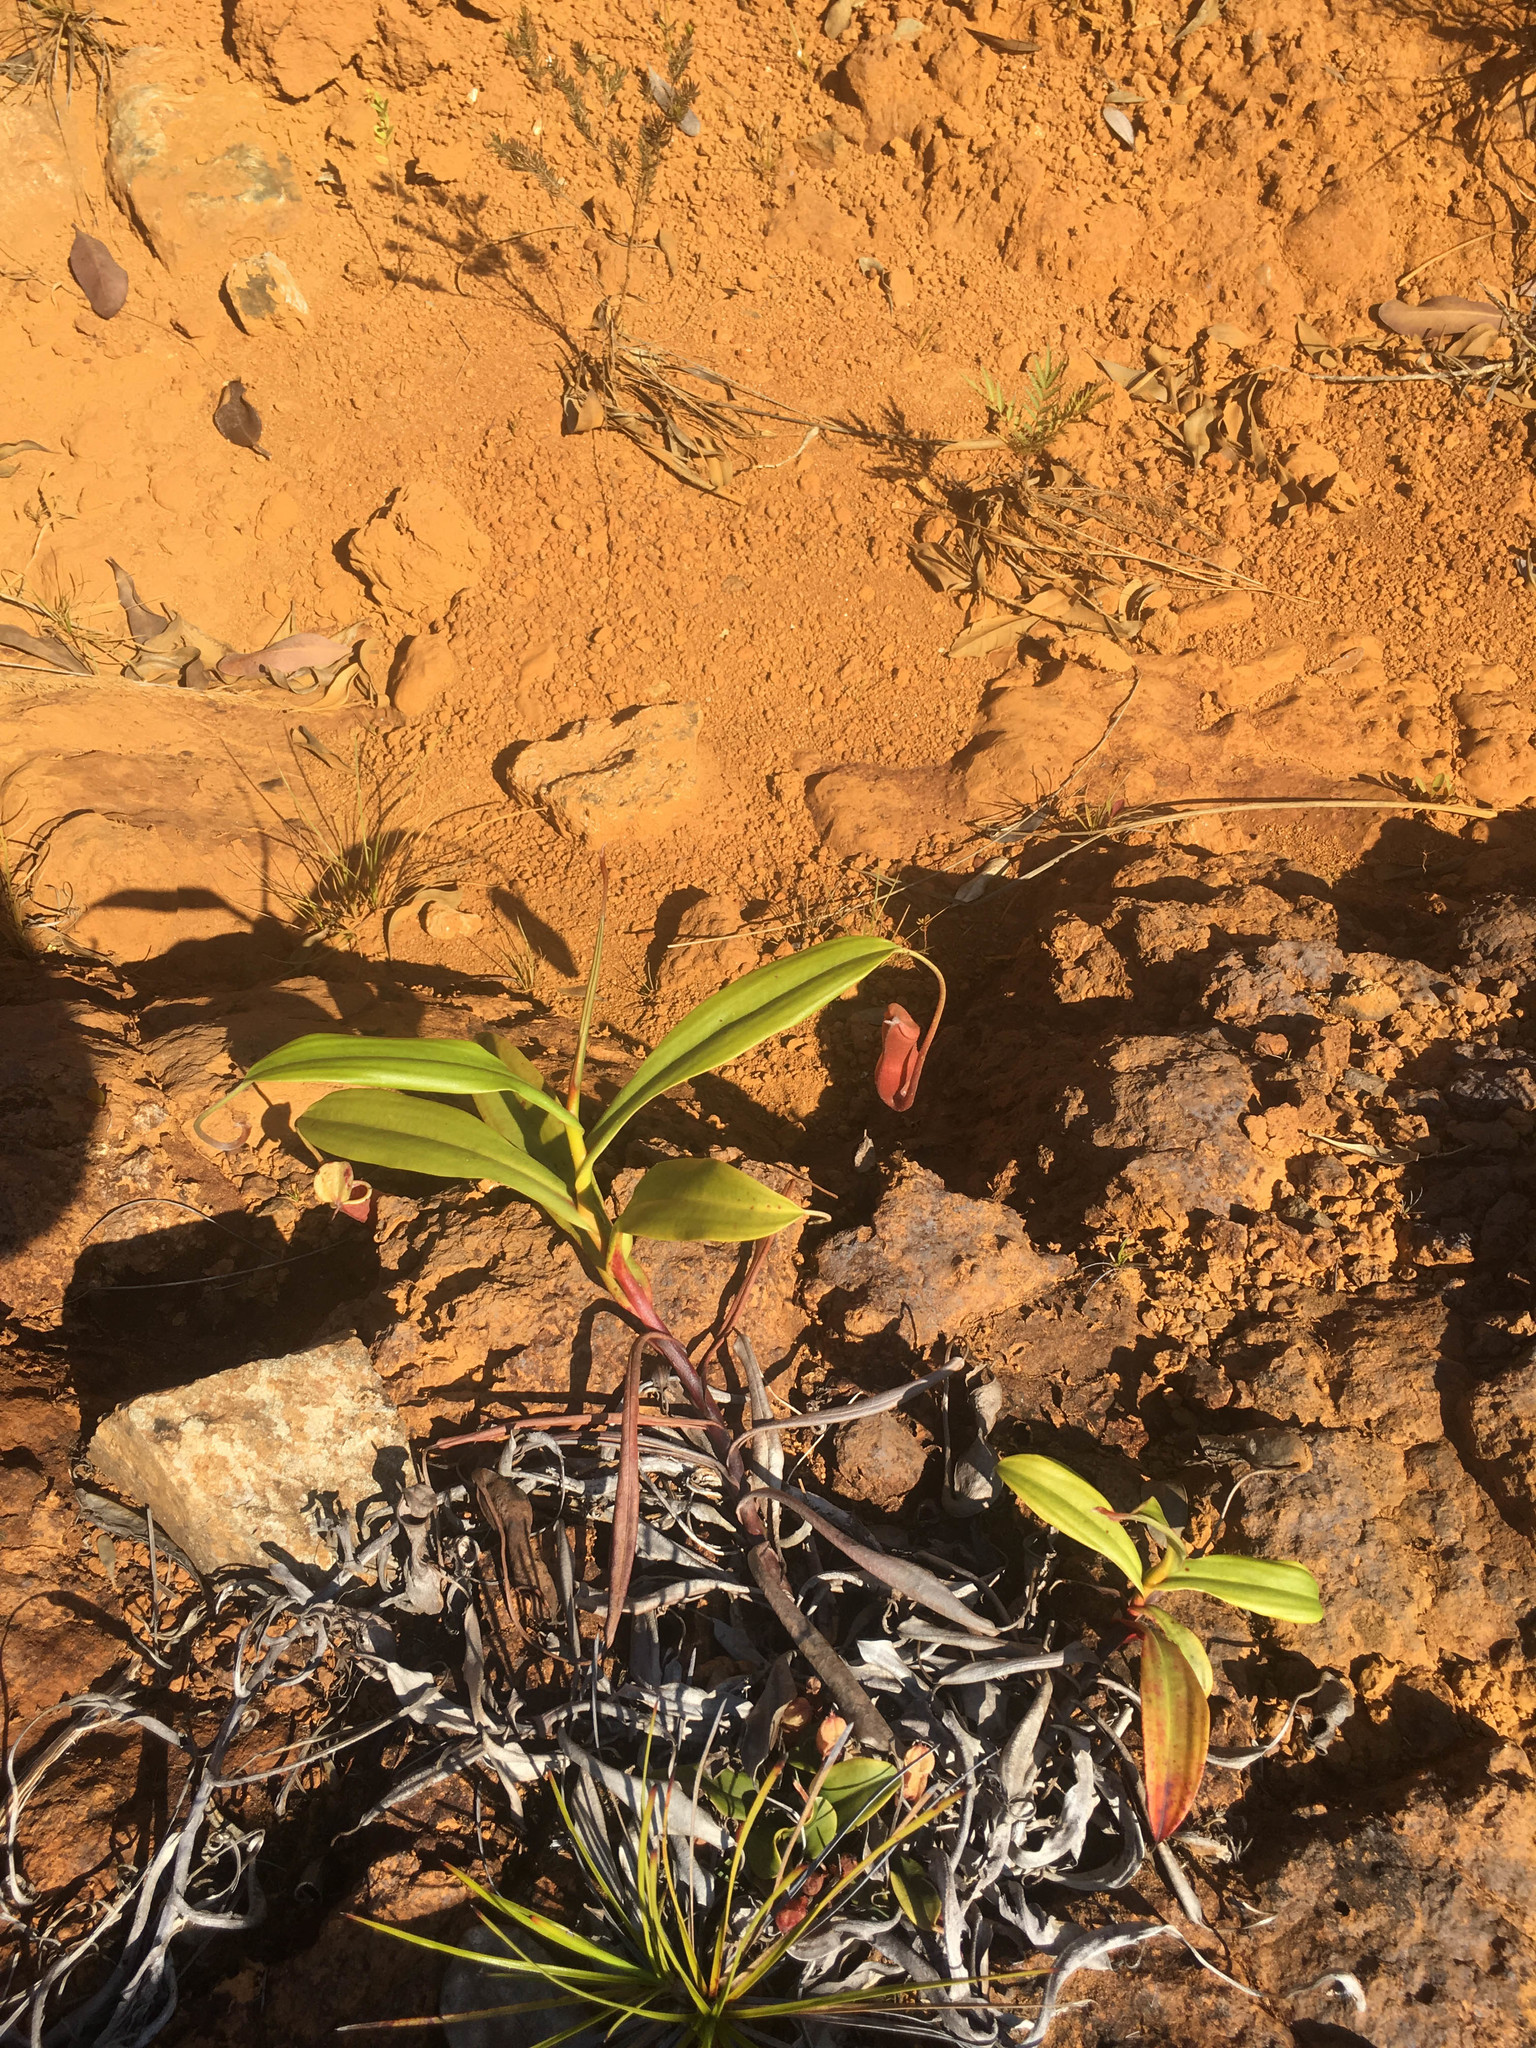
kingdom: Plantae
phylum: Tracheophyta
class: Magnoliopsida
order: Caryophyllales
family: Nepenthaceae
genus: Nepenthes
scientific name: Nepenthes vieillardii
